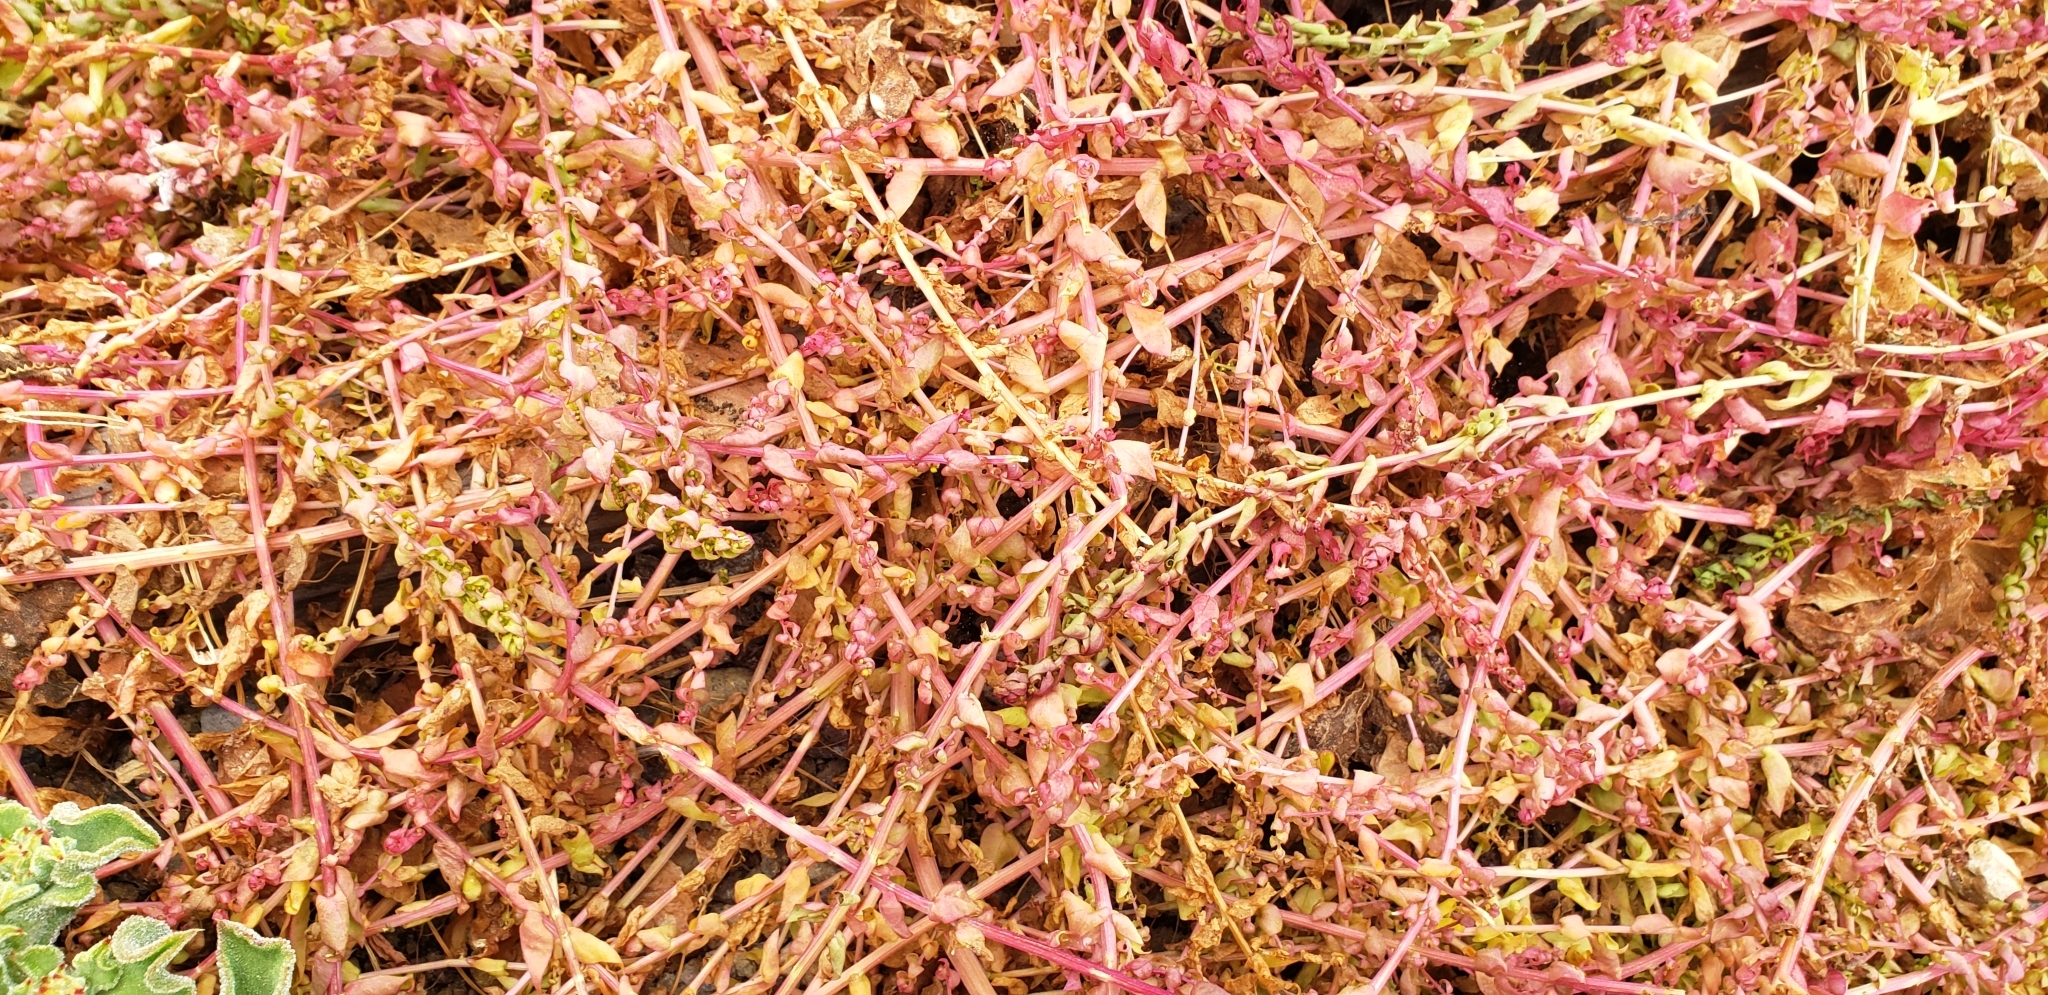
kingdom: Plantae
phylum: Tracheophyta
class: Magnoliopsida
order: Caryophyllales
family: Amaranthaceae
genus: Aphanisma
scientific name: Aphanisma blitoides
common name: Aphanisma
